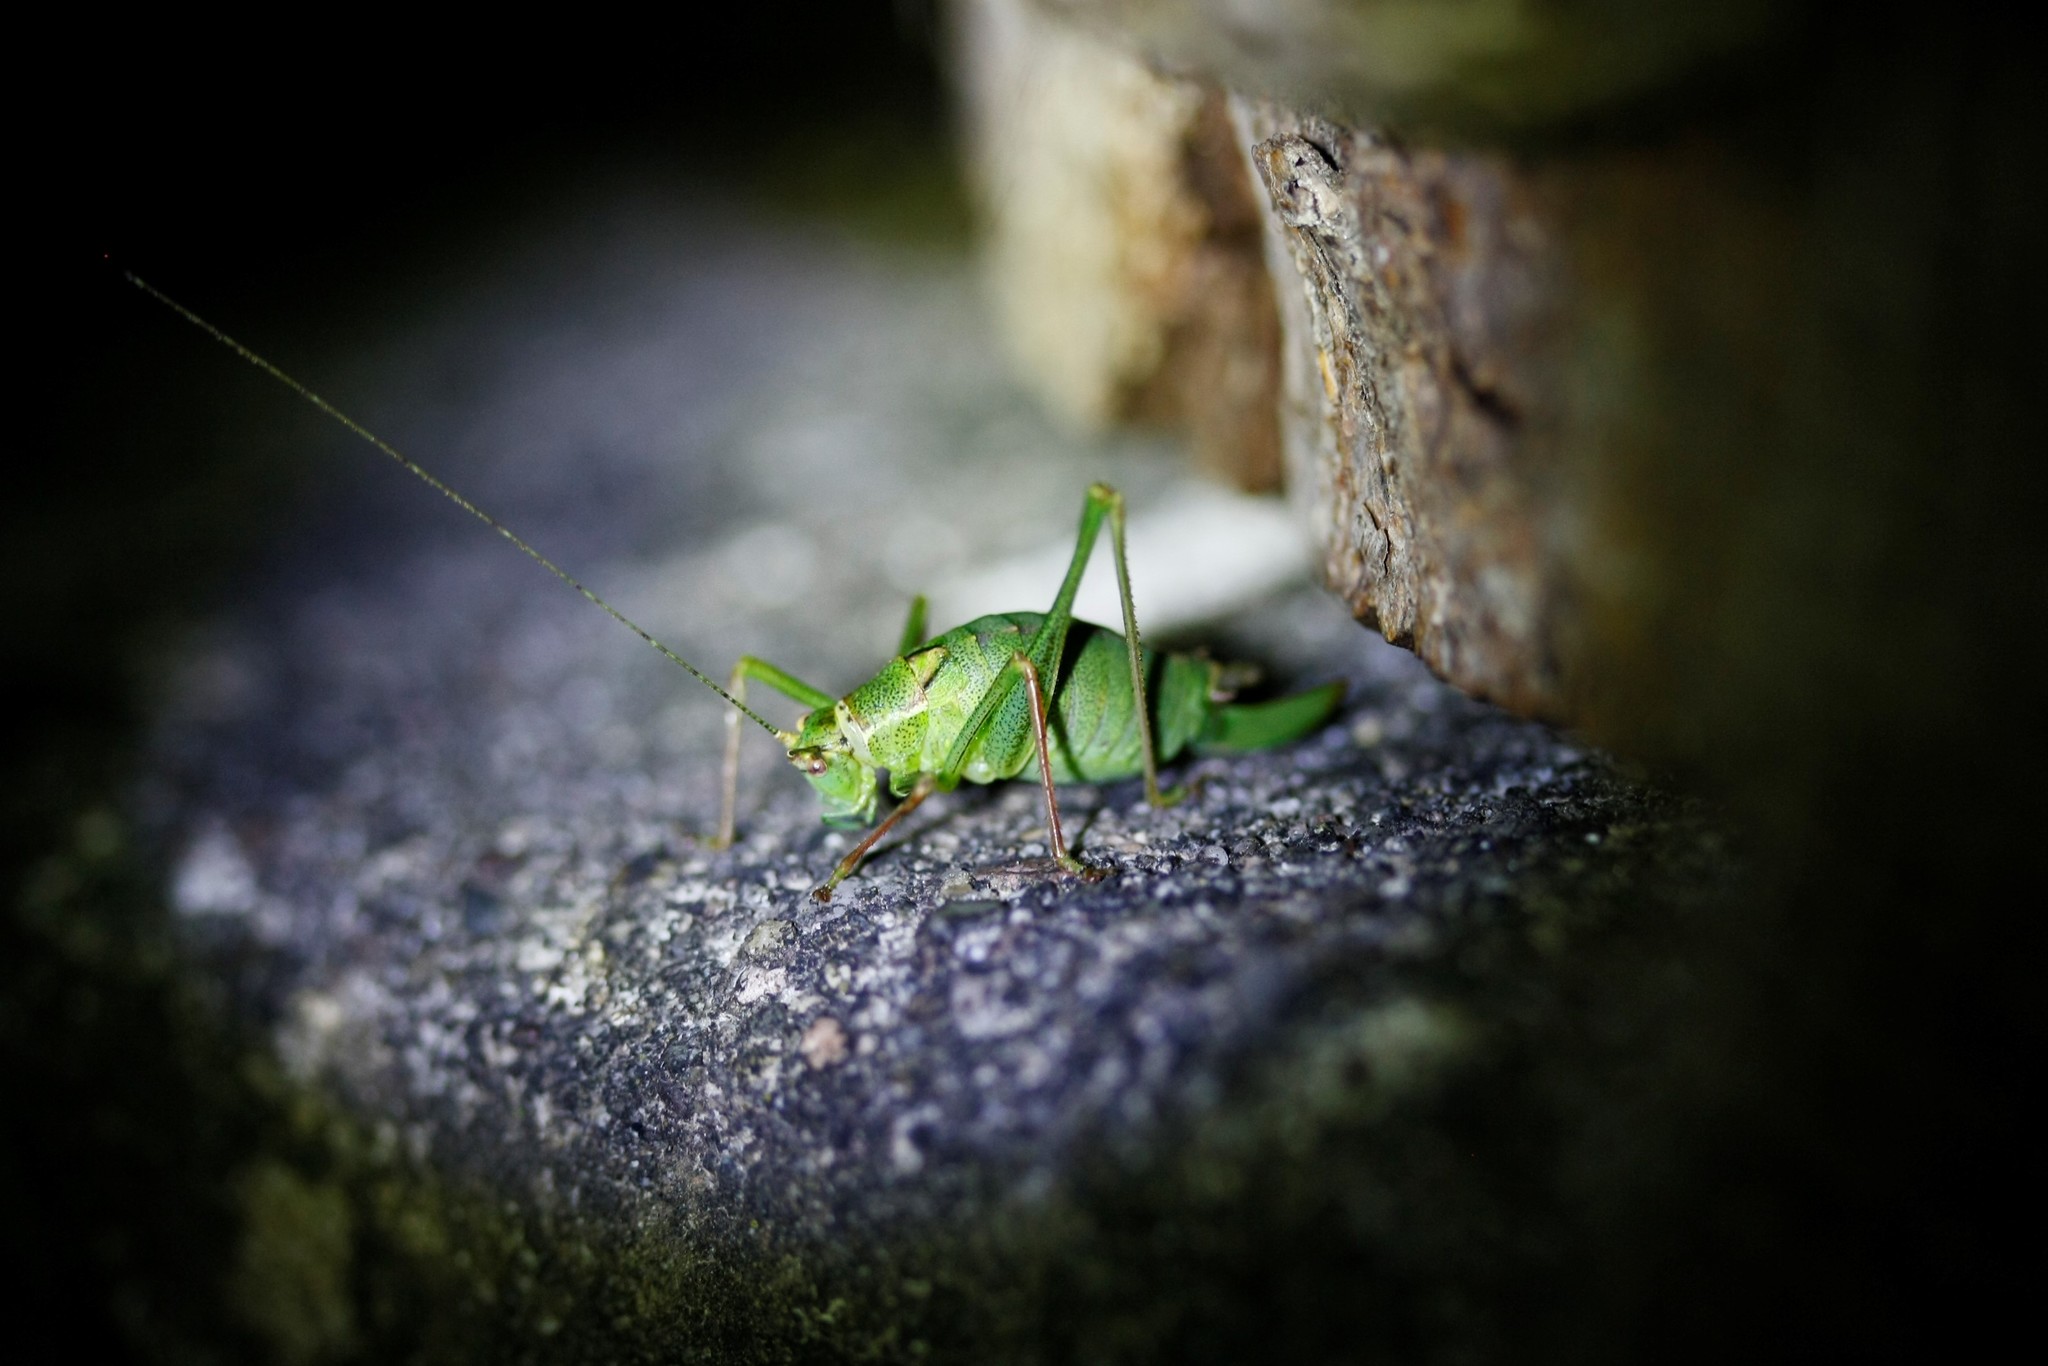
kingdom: Animalia
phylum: Arthropoda
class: Insecta
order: Orthoptera
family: Tettigoniidae
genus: Leptophyes
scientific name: Leptophyes punctatissima
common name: Speckled bush-cricket
